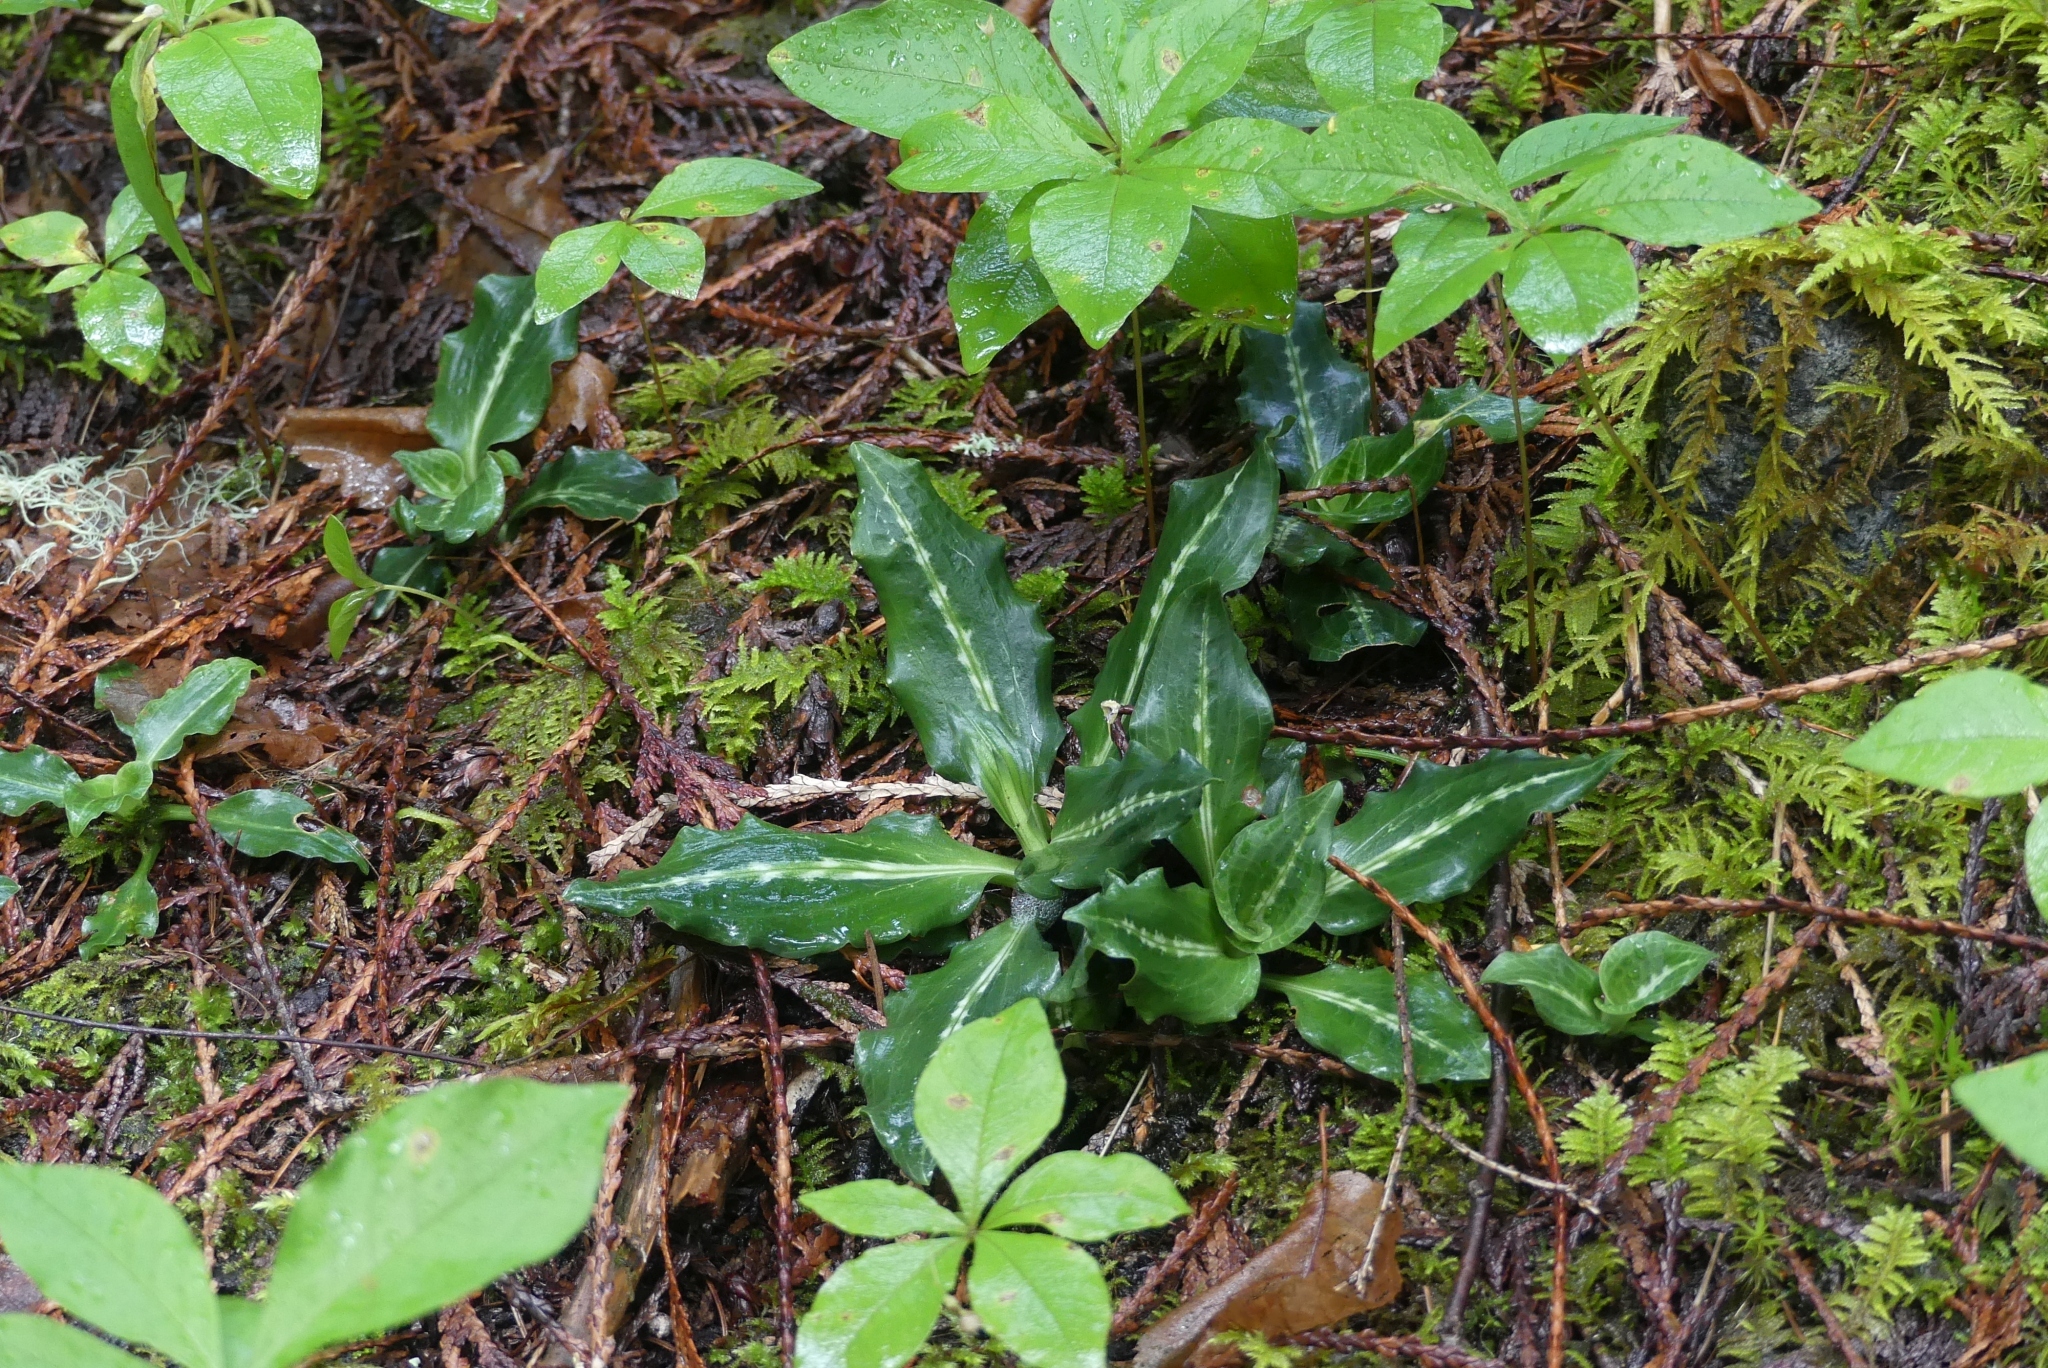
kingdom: Plantae
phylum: Tracheophyta
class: Liliopsida
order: Asparagales
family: Orchidaceae
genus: Goodyera
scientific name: Goodyera oblongifolia
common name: Giant rattlesnake-plantain
